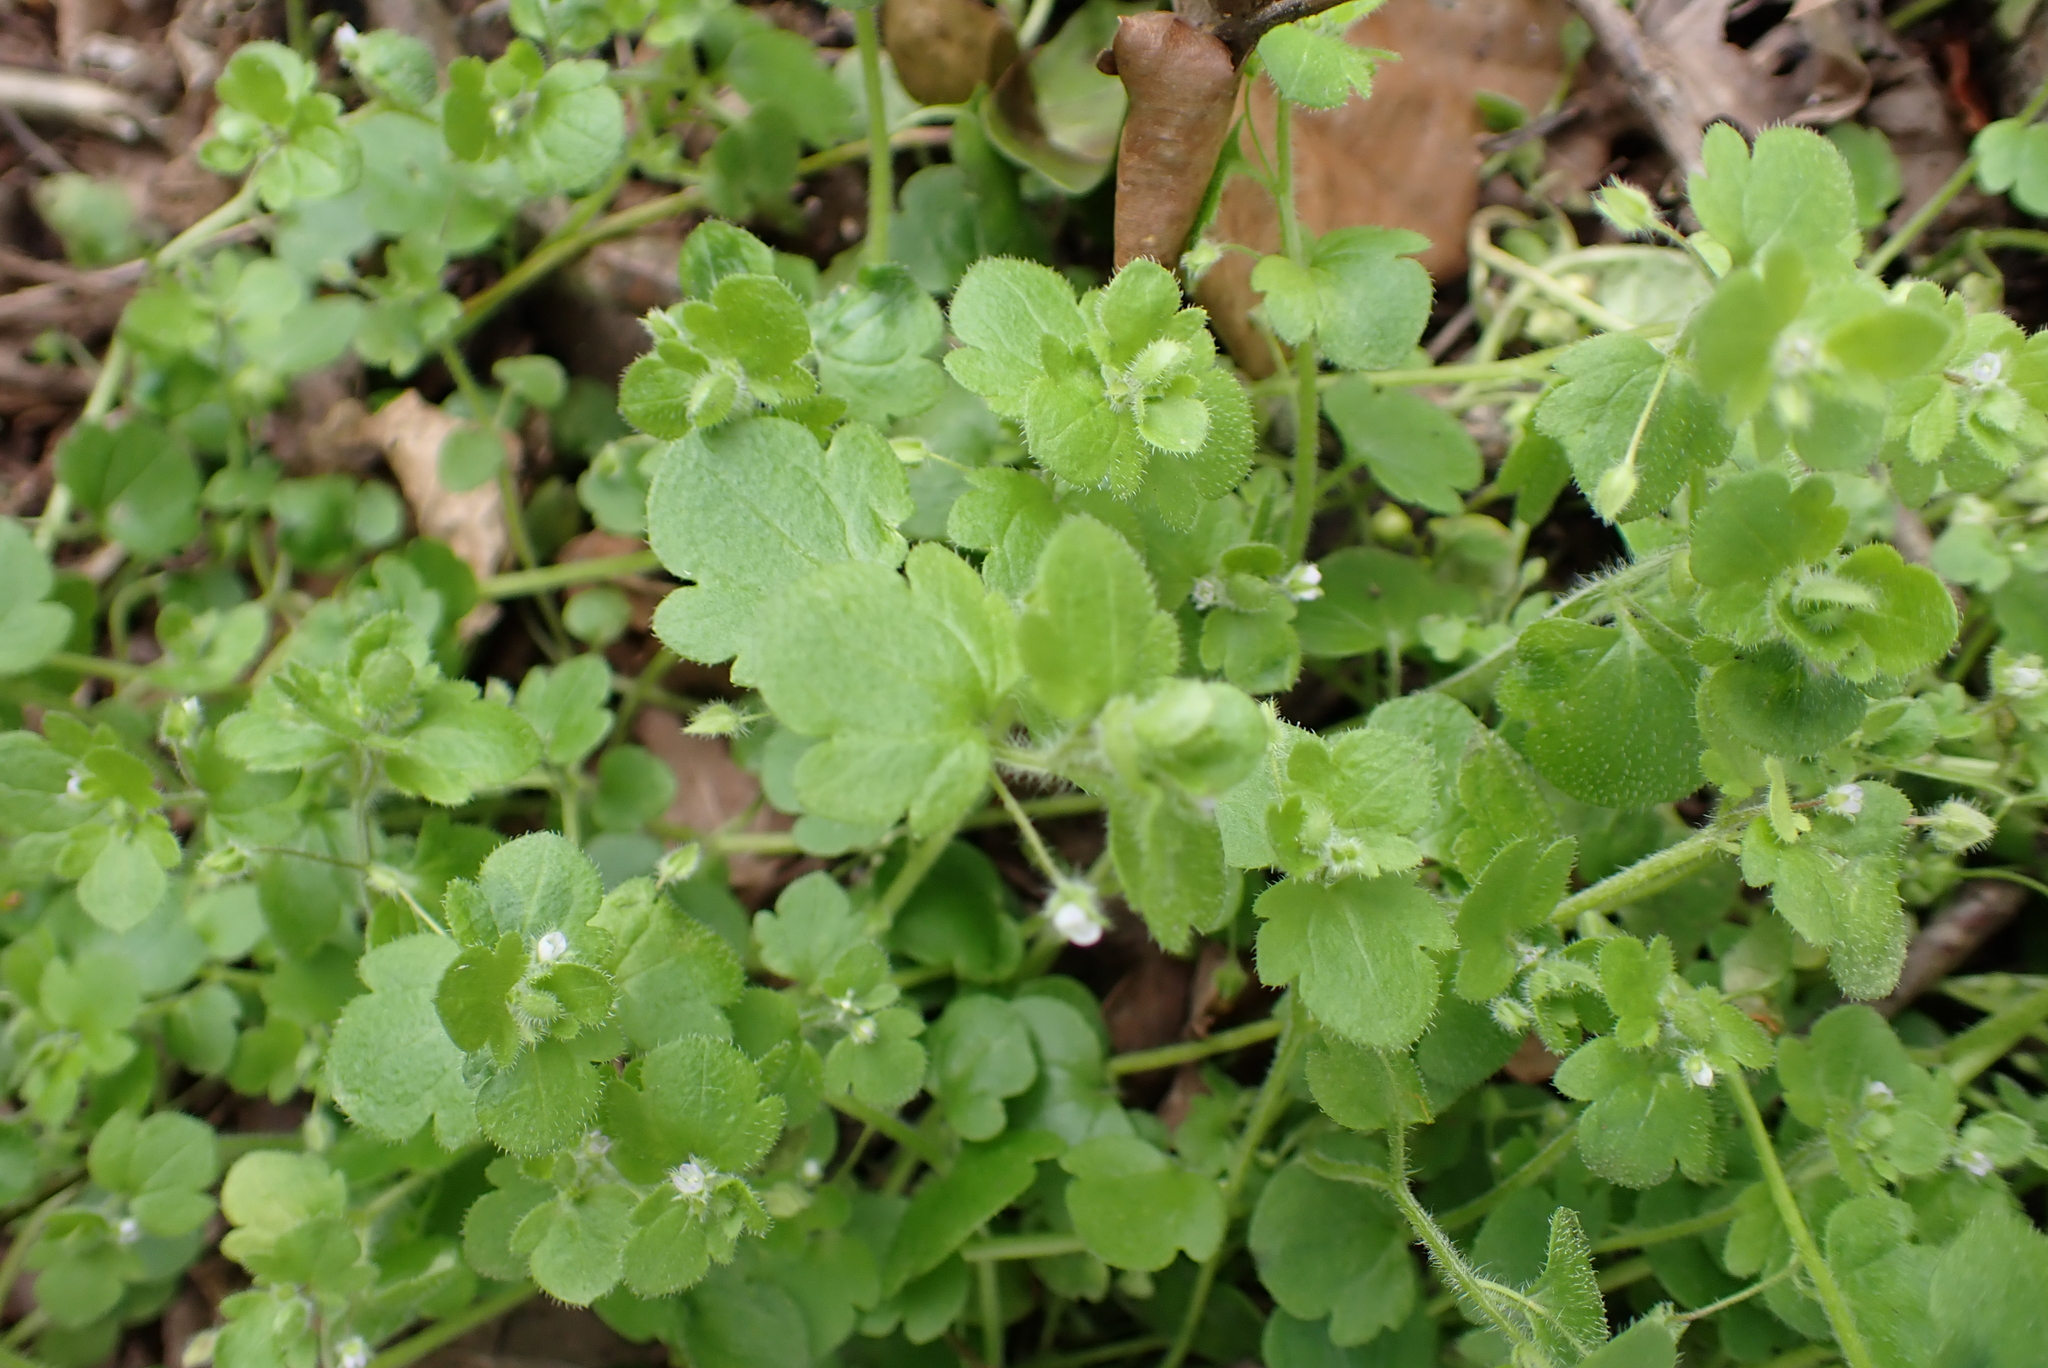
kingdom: Plantae
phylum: Tracheophyta
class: Magnoliopsida
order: Lamiales
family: Plantaginaceae
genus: Veronica
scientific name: Veronica sublobata
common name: False ivy-leaved speedwell
